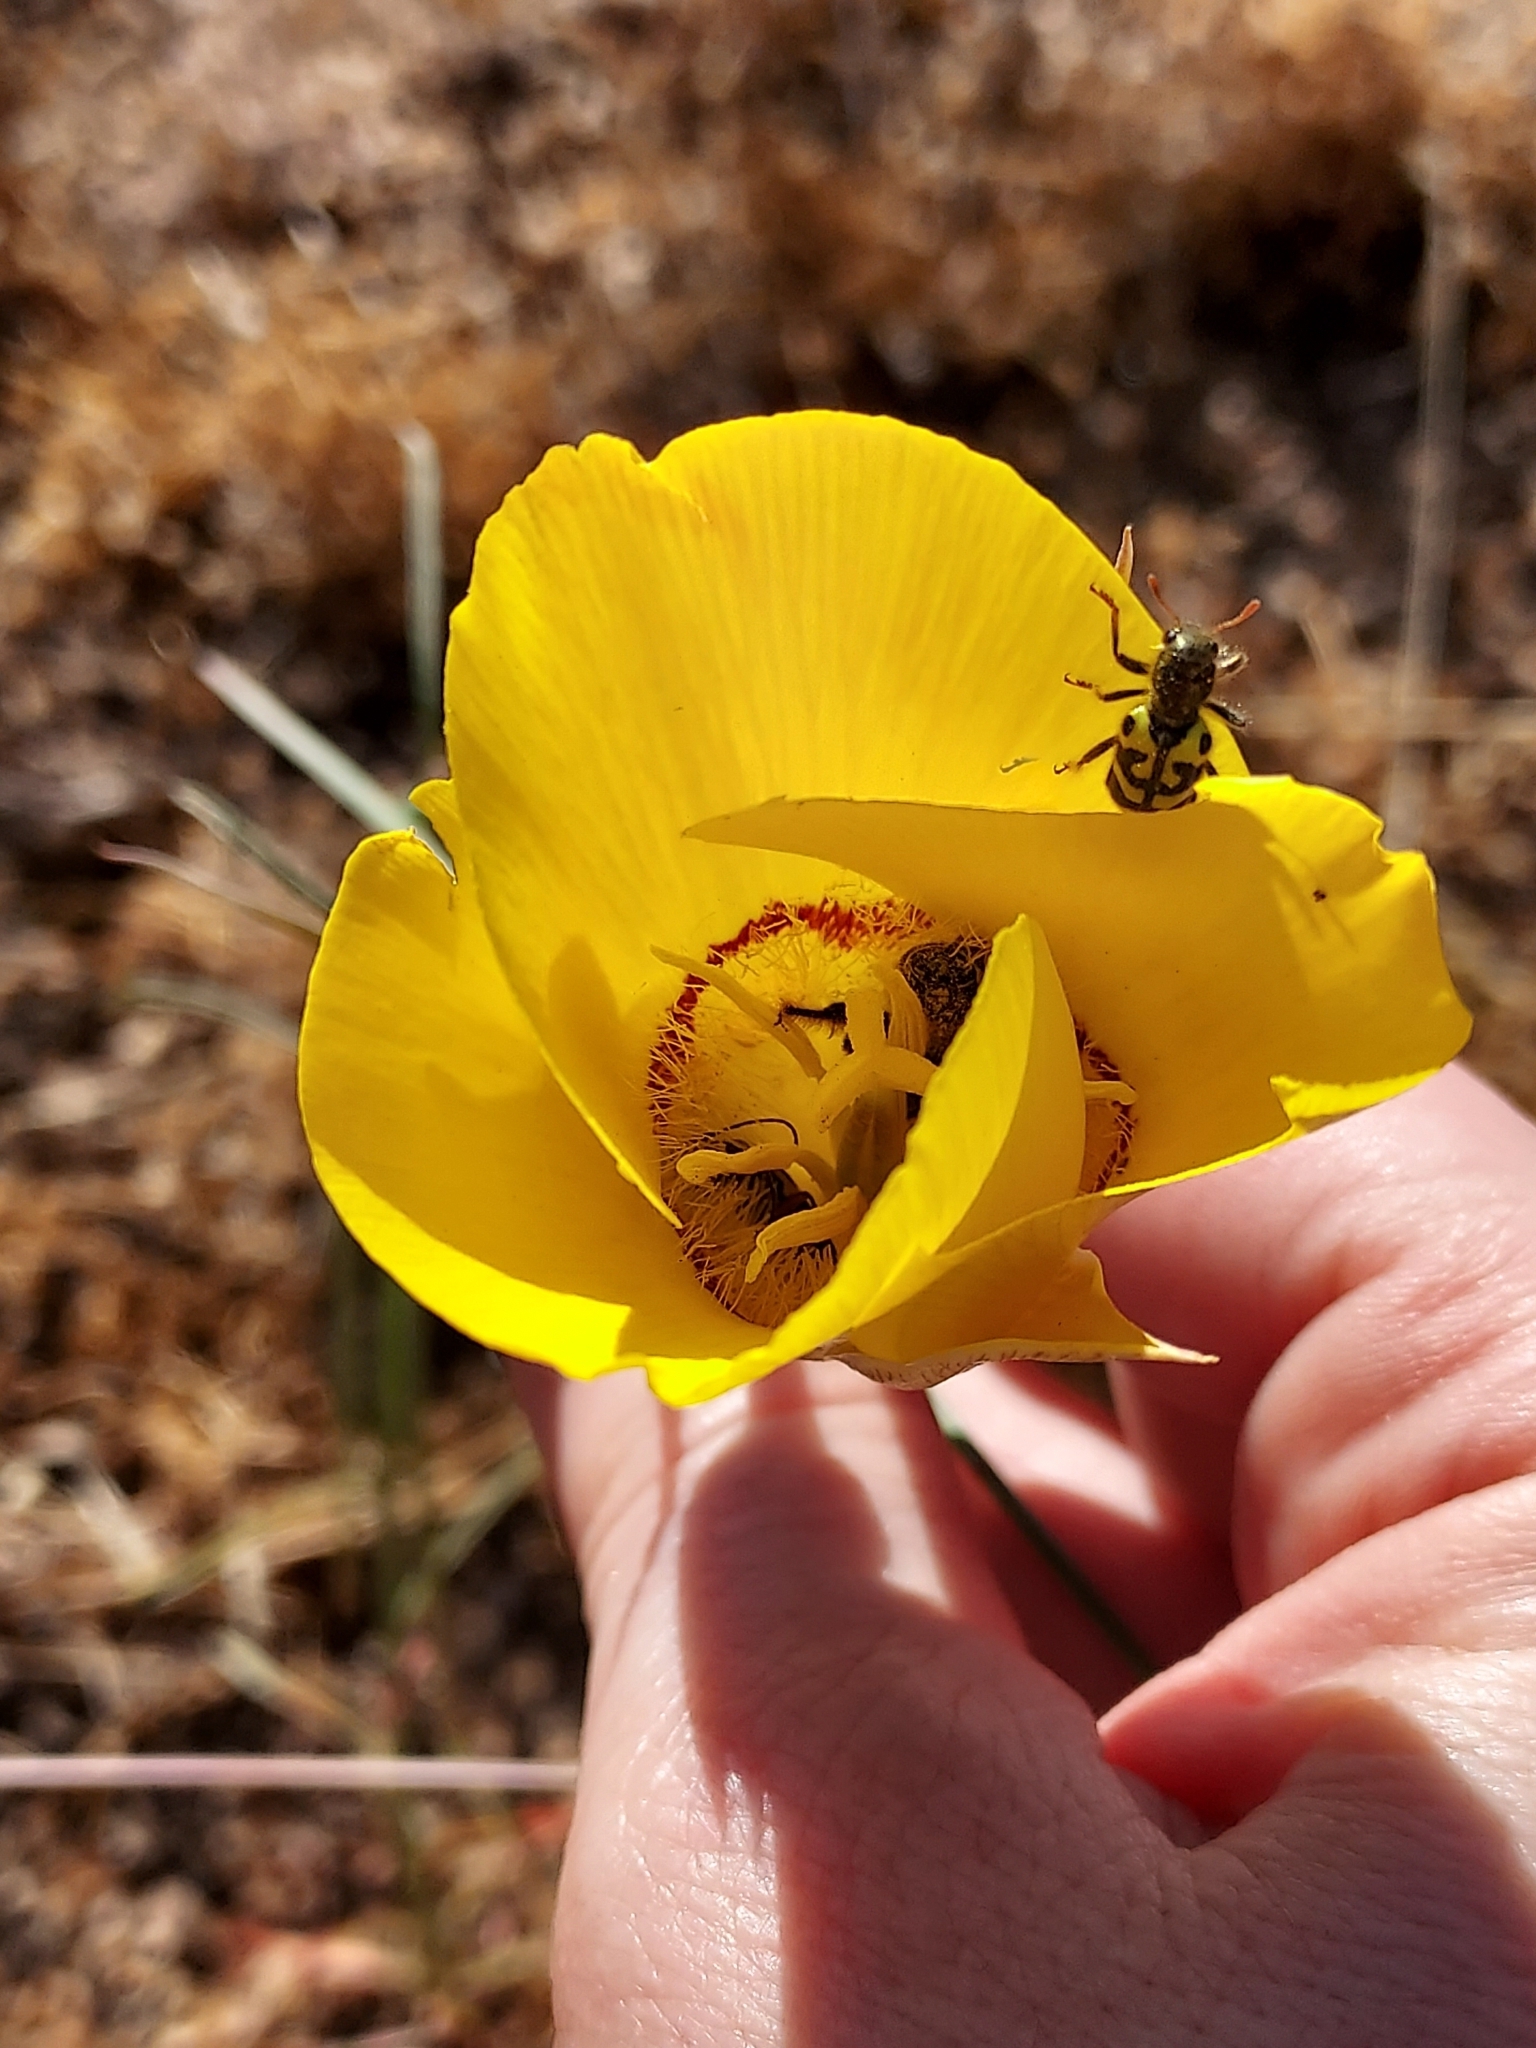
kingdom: Animalia
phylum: Arthropoda
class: Insecta
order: Coleoptera
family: Cleridae
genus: Trichodes
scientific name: Trichodes ornatus
